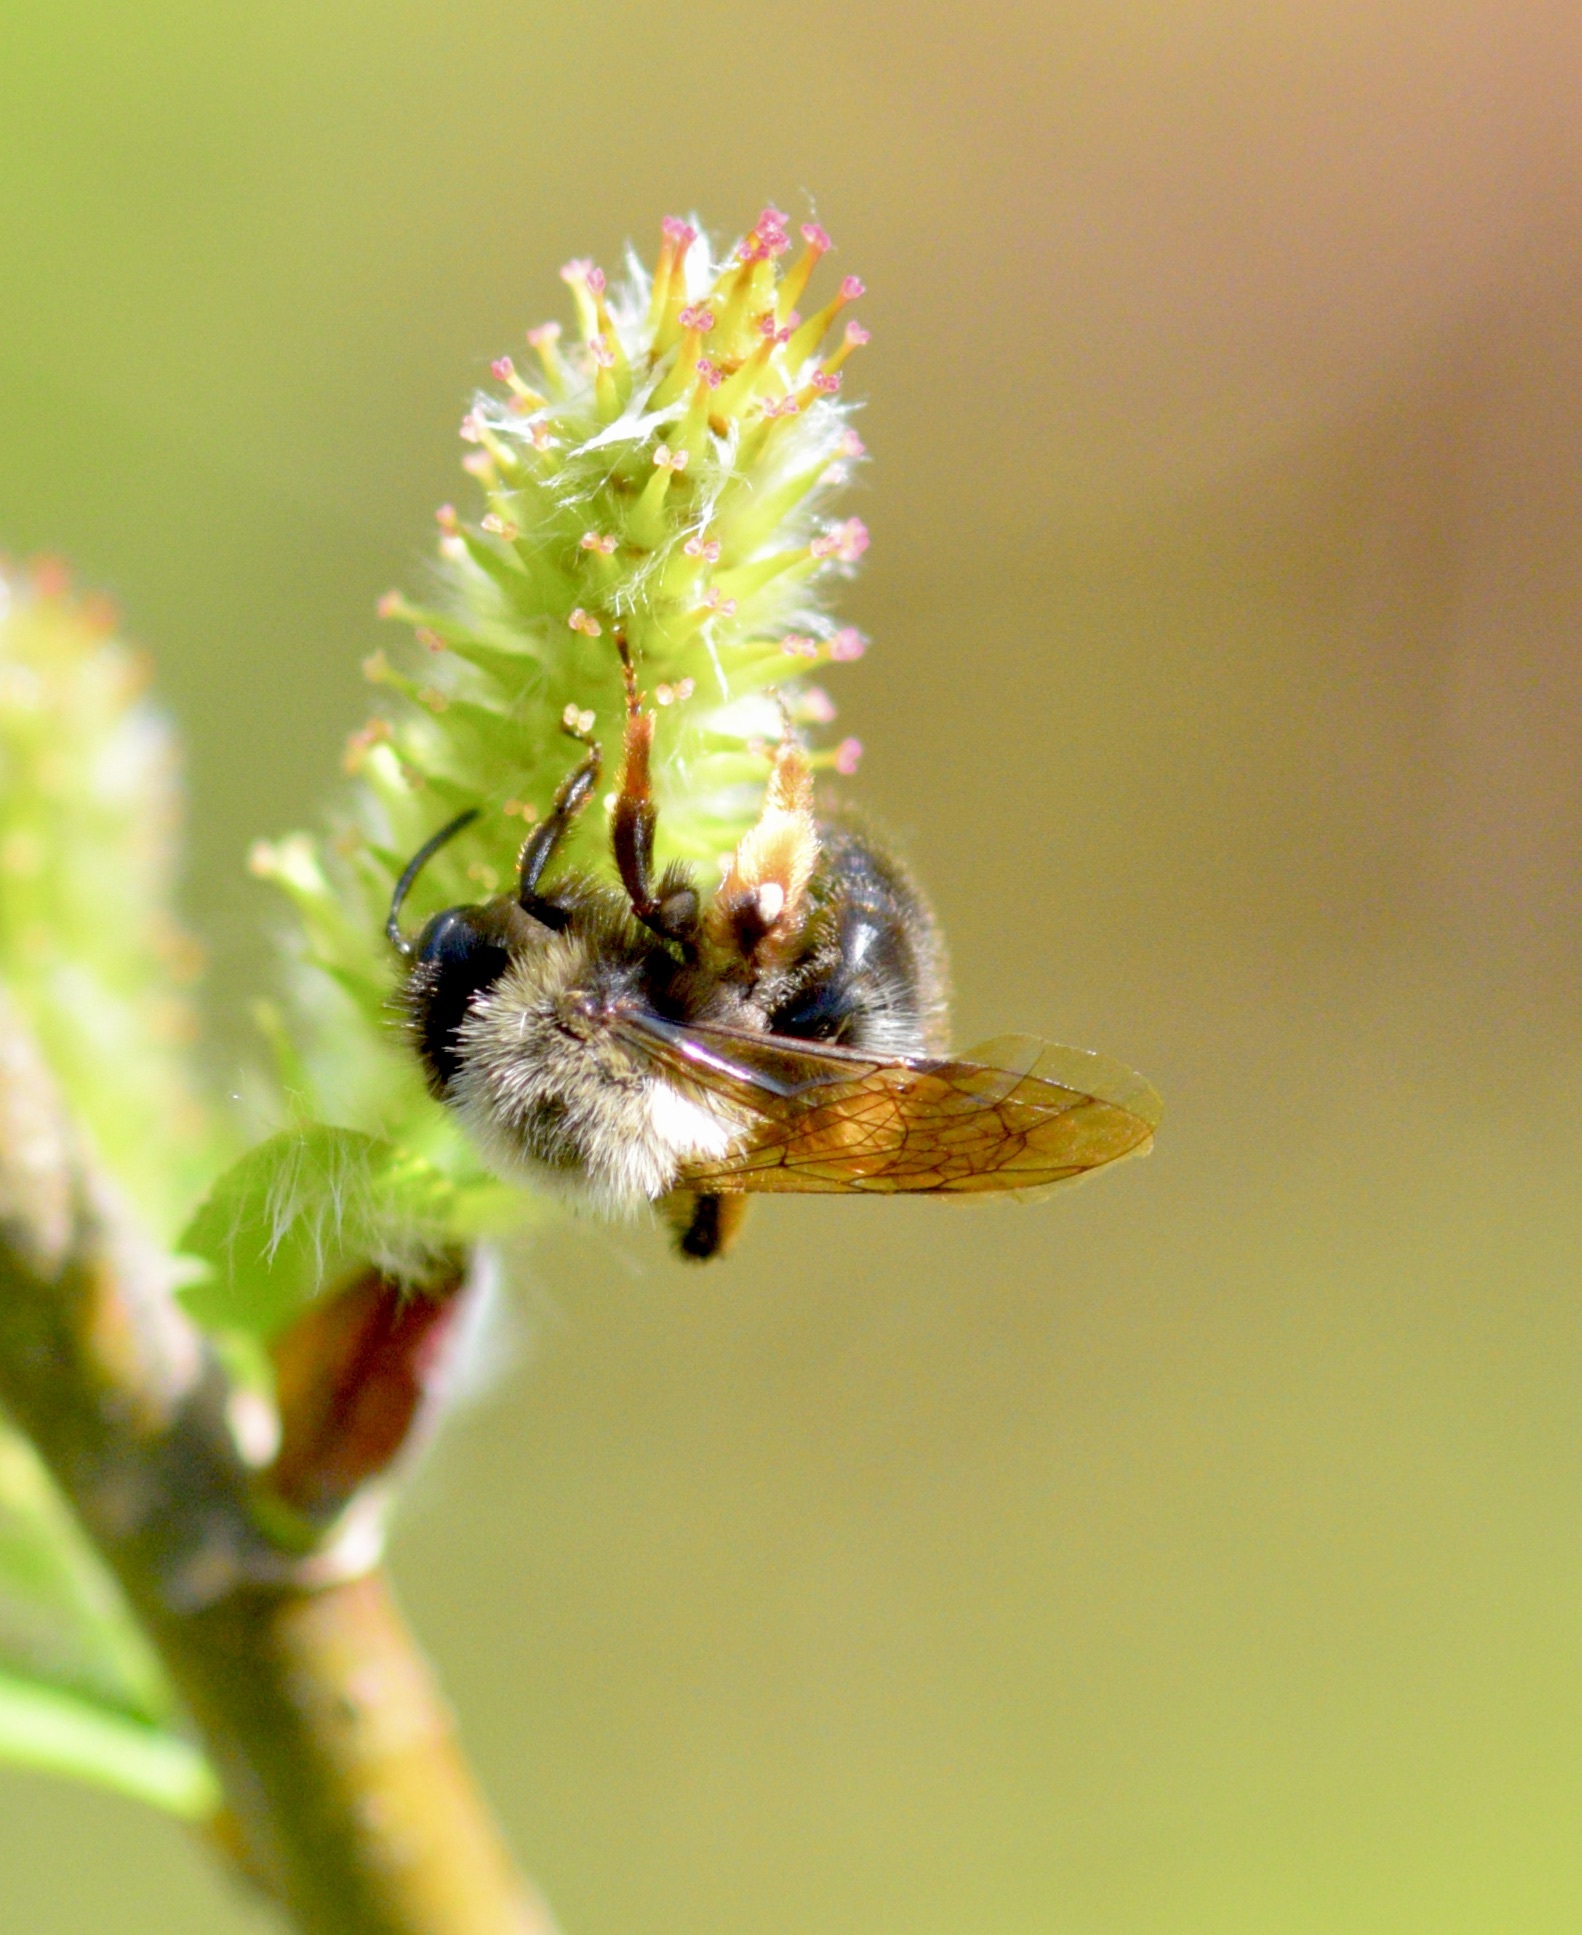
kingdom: Animalia
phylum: Arthropoda
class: Insecta
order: Hymenoptera
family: Andrenidae
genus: Andrena
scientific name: Andrena clarkella
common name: Clarke's mining bee
